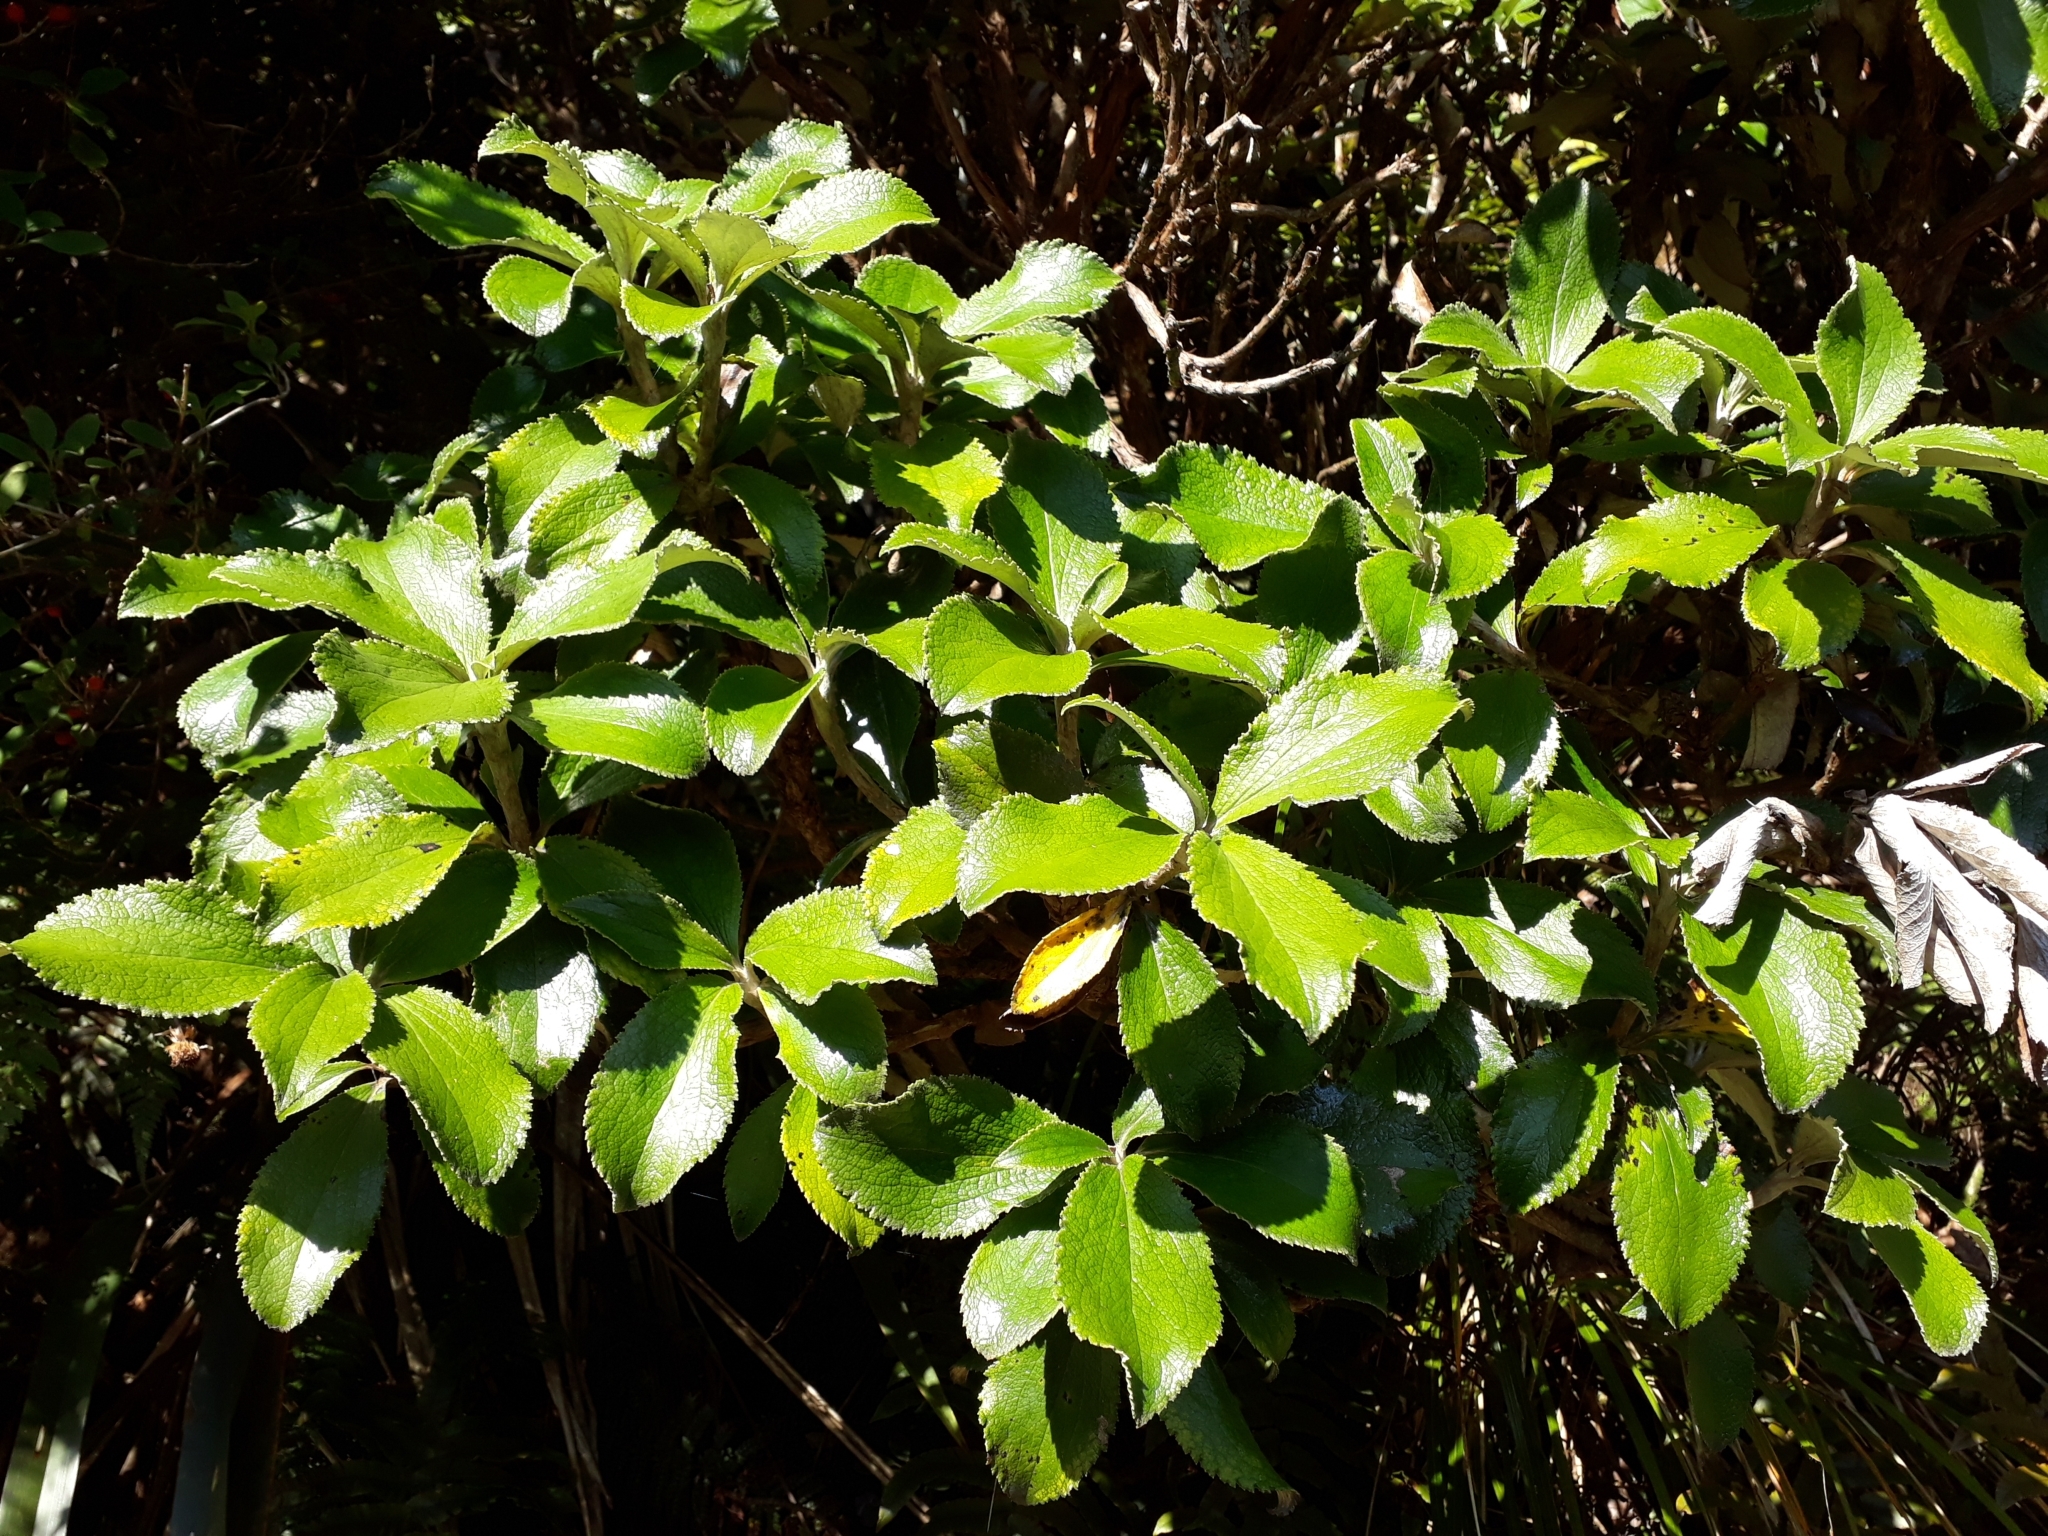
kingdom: Plantae
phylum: Tracheophyta
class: Magnoliopsida
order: Asterales
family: Asteraceae
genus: Macrolearia
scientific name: Macrolearia colensoi
